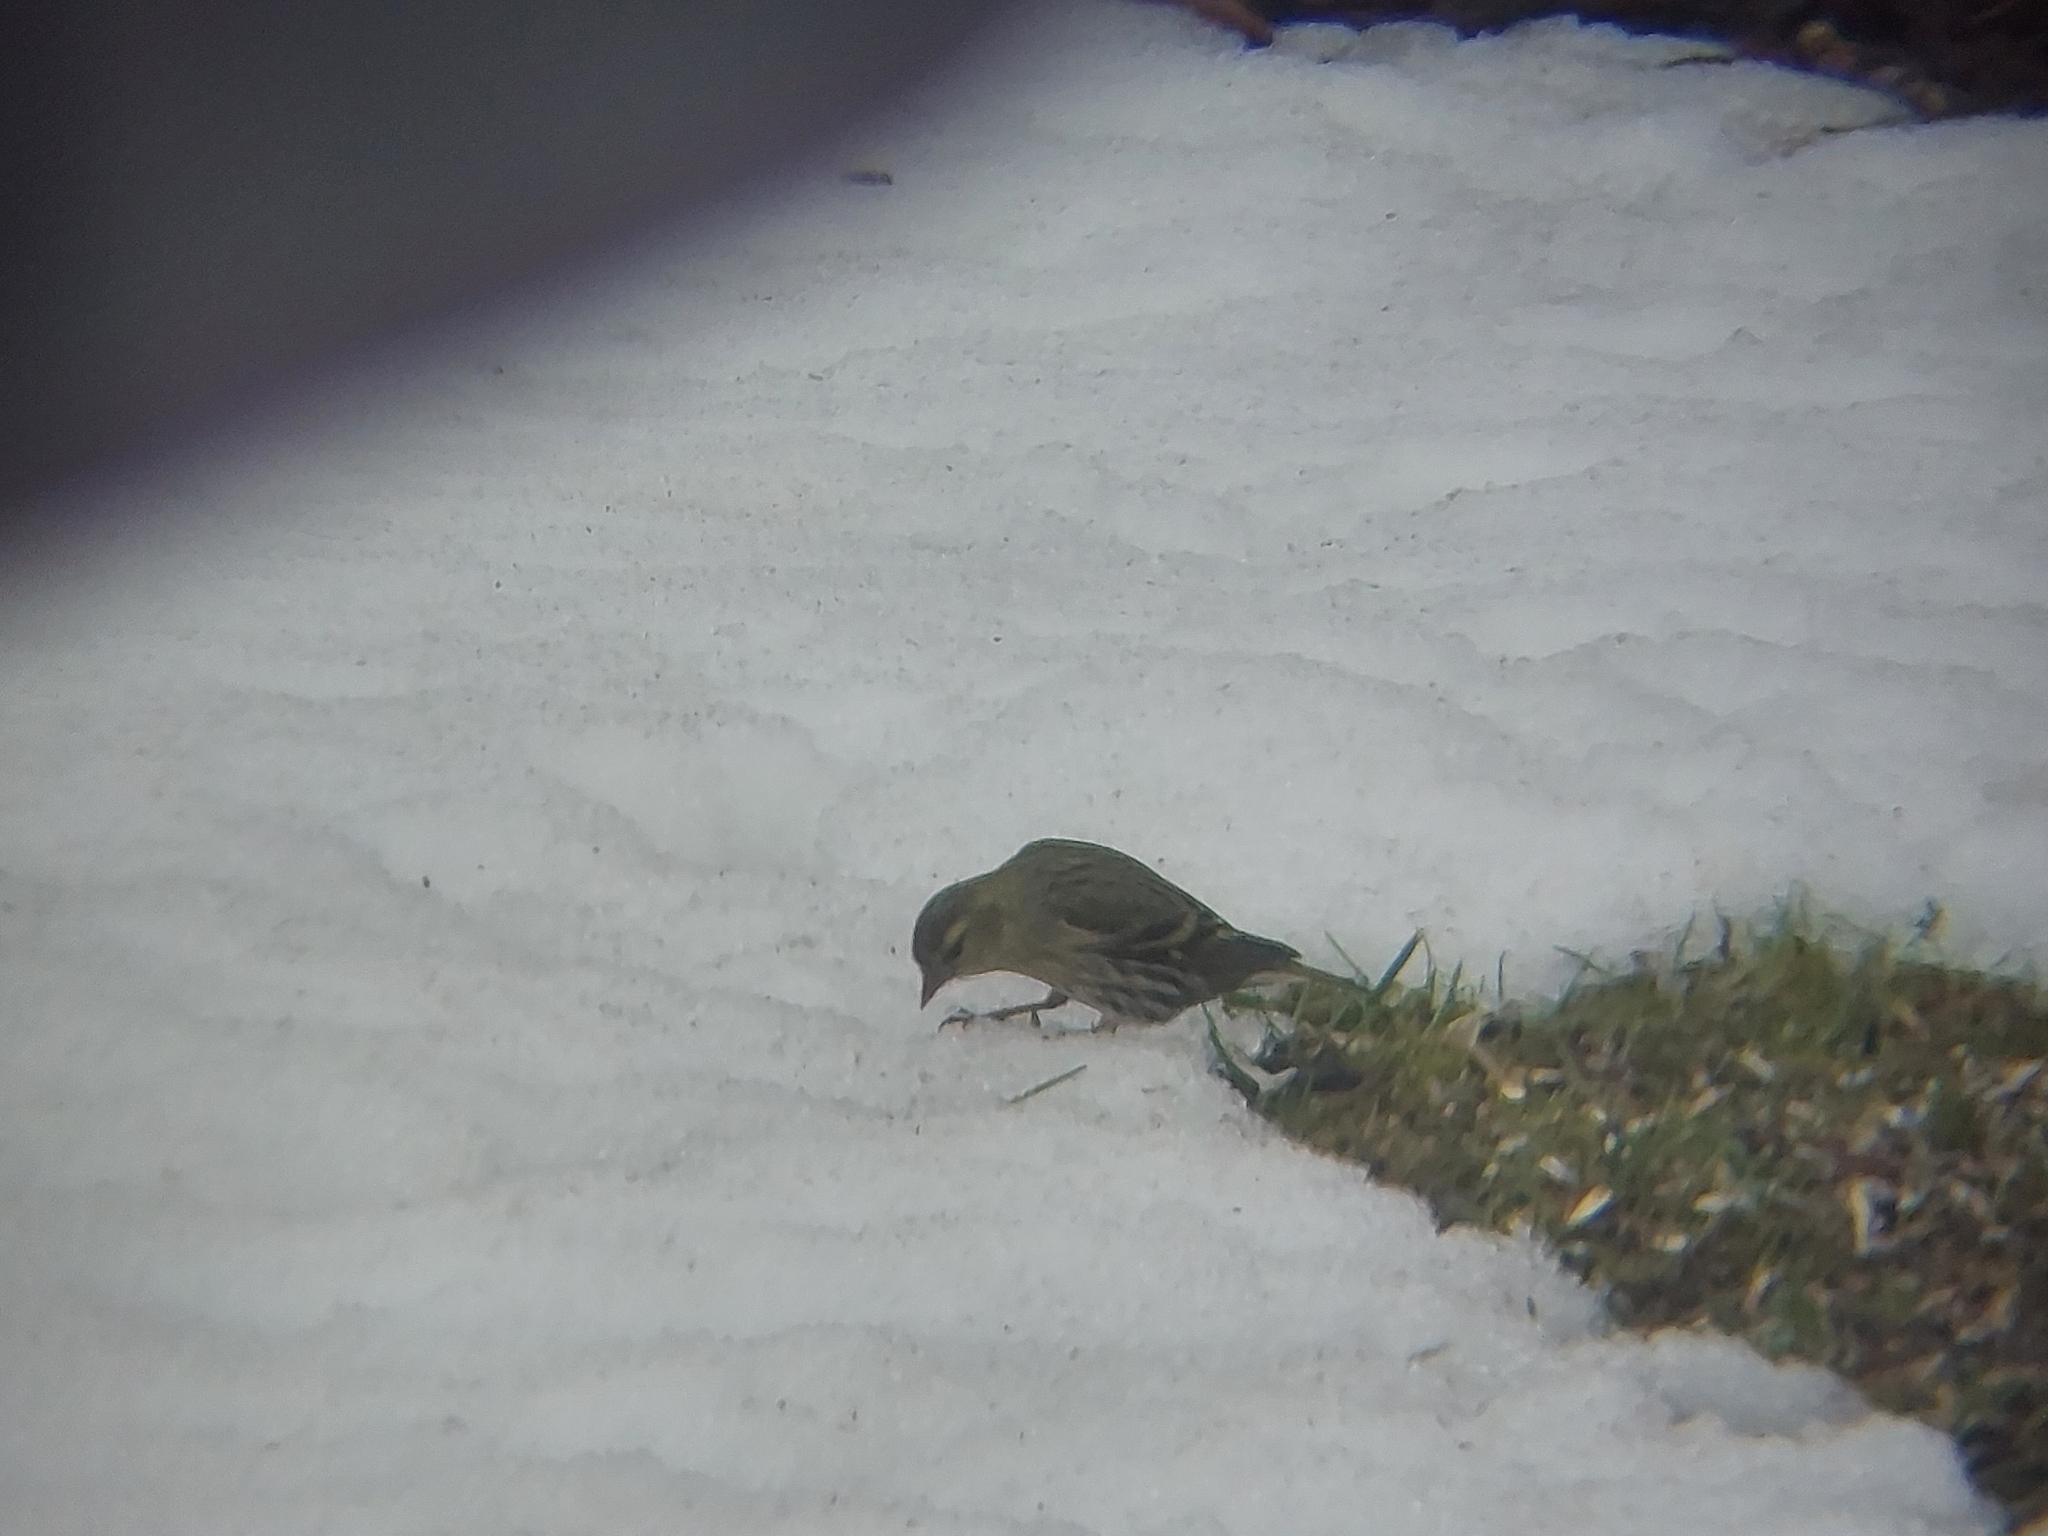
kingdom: Animalia
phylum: Chordata
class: Aves
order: Passeriformes
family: Fringillidae
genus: Spinus
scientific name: Spinus spinus
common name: Eurasian siskin
